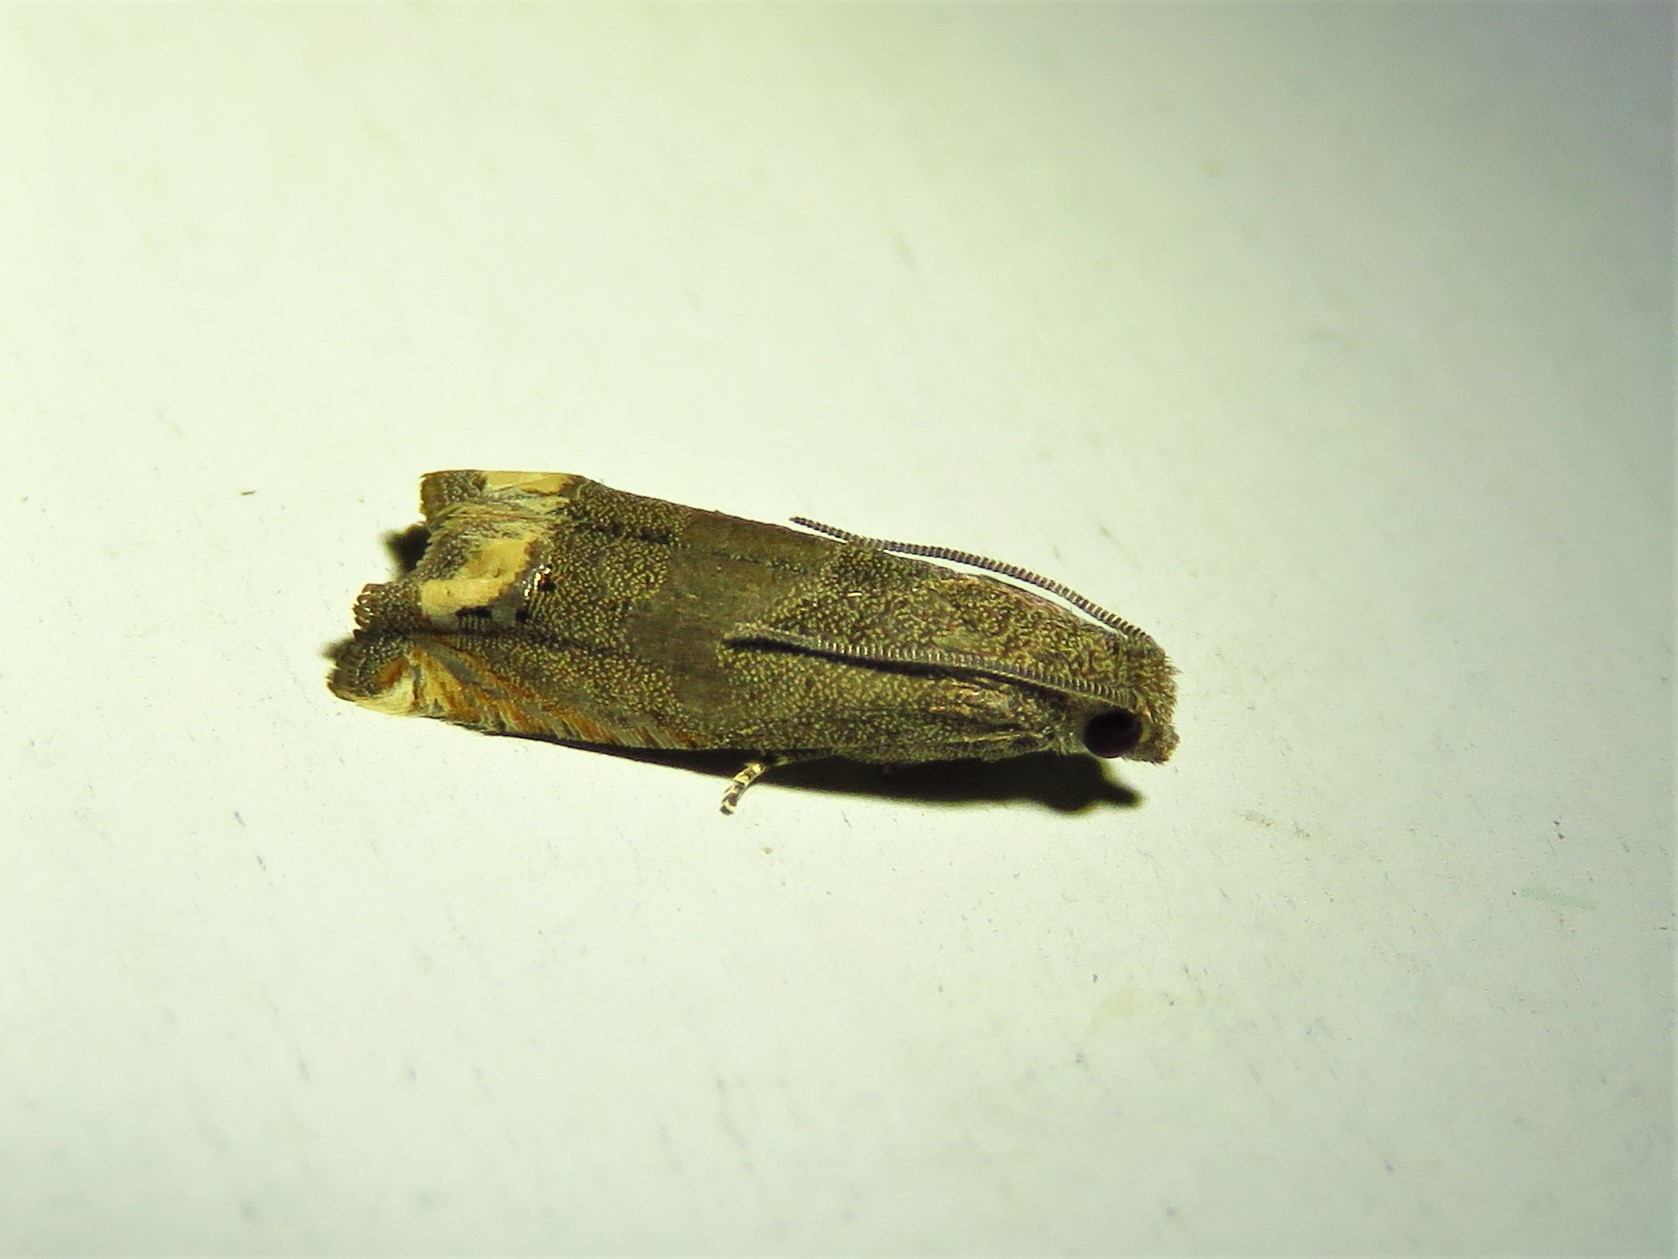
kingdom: Animalia
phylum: Arthropoda
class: Insecta
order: Lepidoptera
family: Tortricidae
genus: Epiblema
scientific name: Epiblema strenuana
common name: Ragweed borer moth
